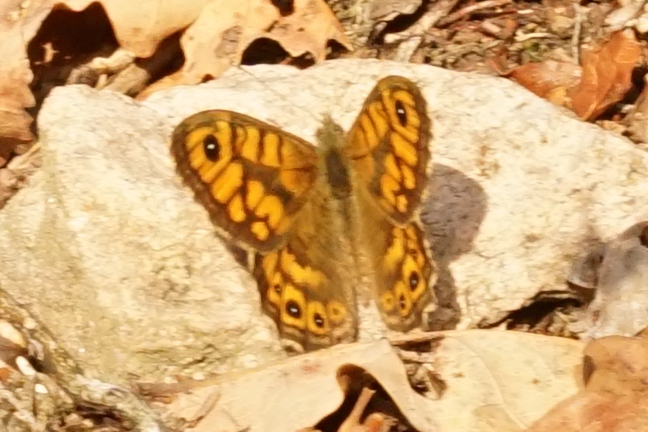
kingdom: Animalia
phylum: Arthropoda
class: Insecta
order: Lepidoptera
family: Nymphalidae
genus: Pararge
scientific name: Pararge Lasiommata megera
